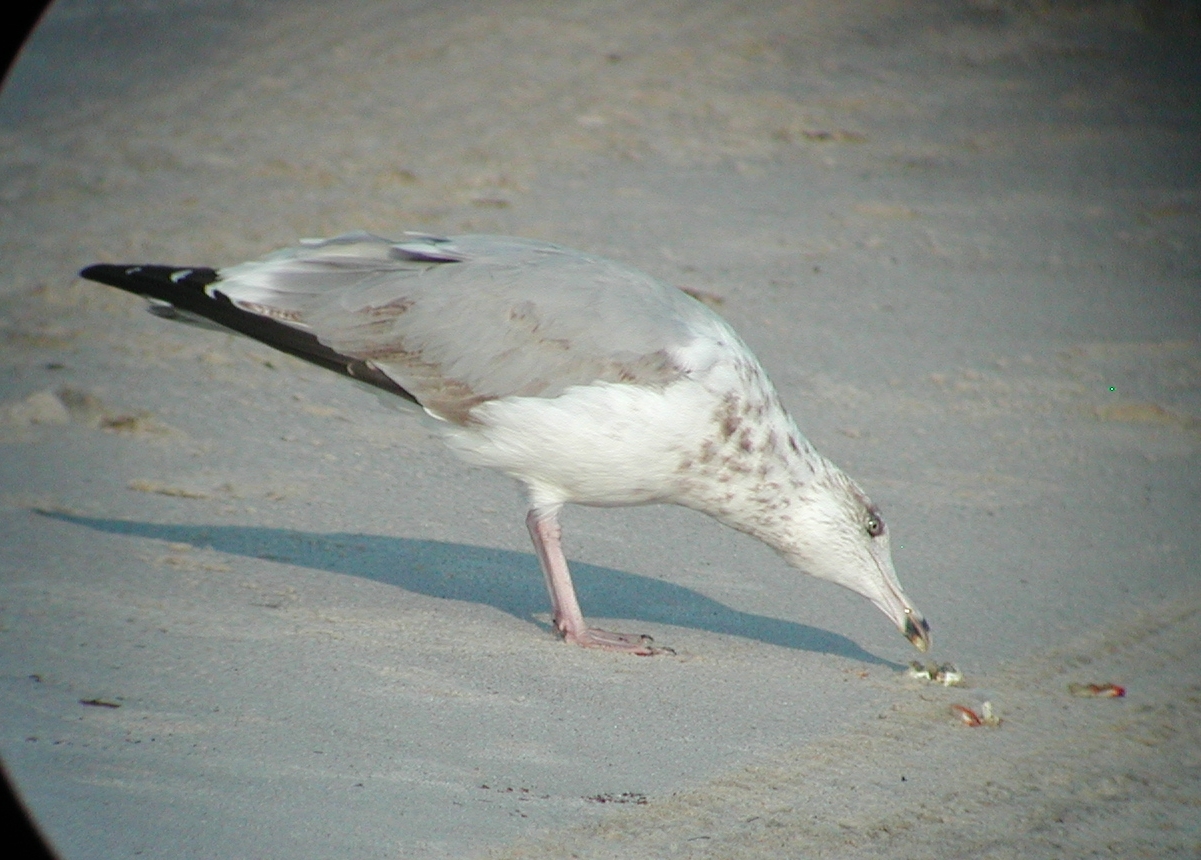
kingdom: Animalia
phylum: Chordata
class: Aves
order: Charadriiformes
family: Laridae
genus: Larus
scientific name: Larus argentatus
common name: Herring gull
